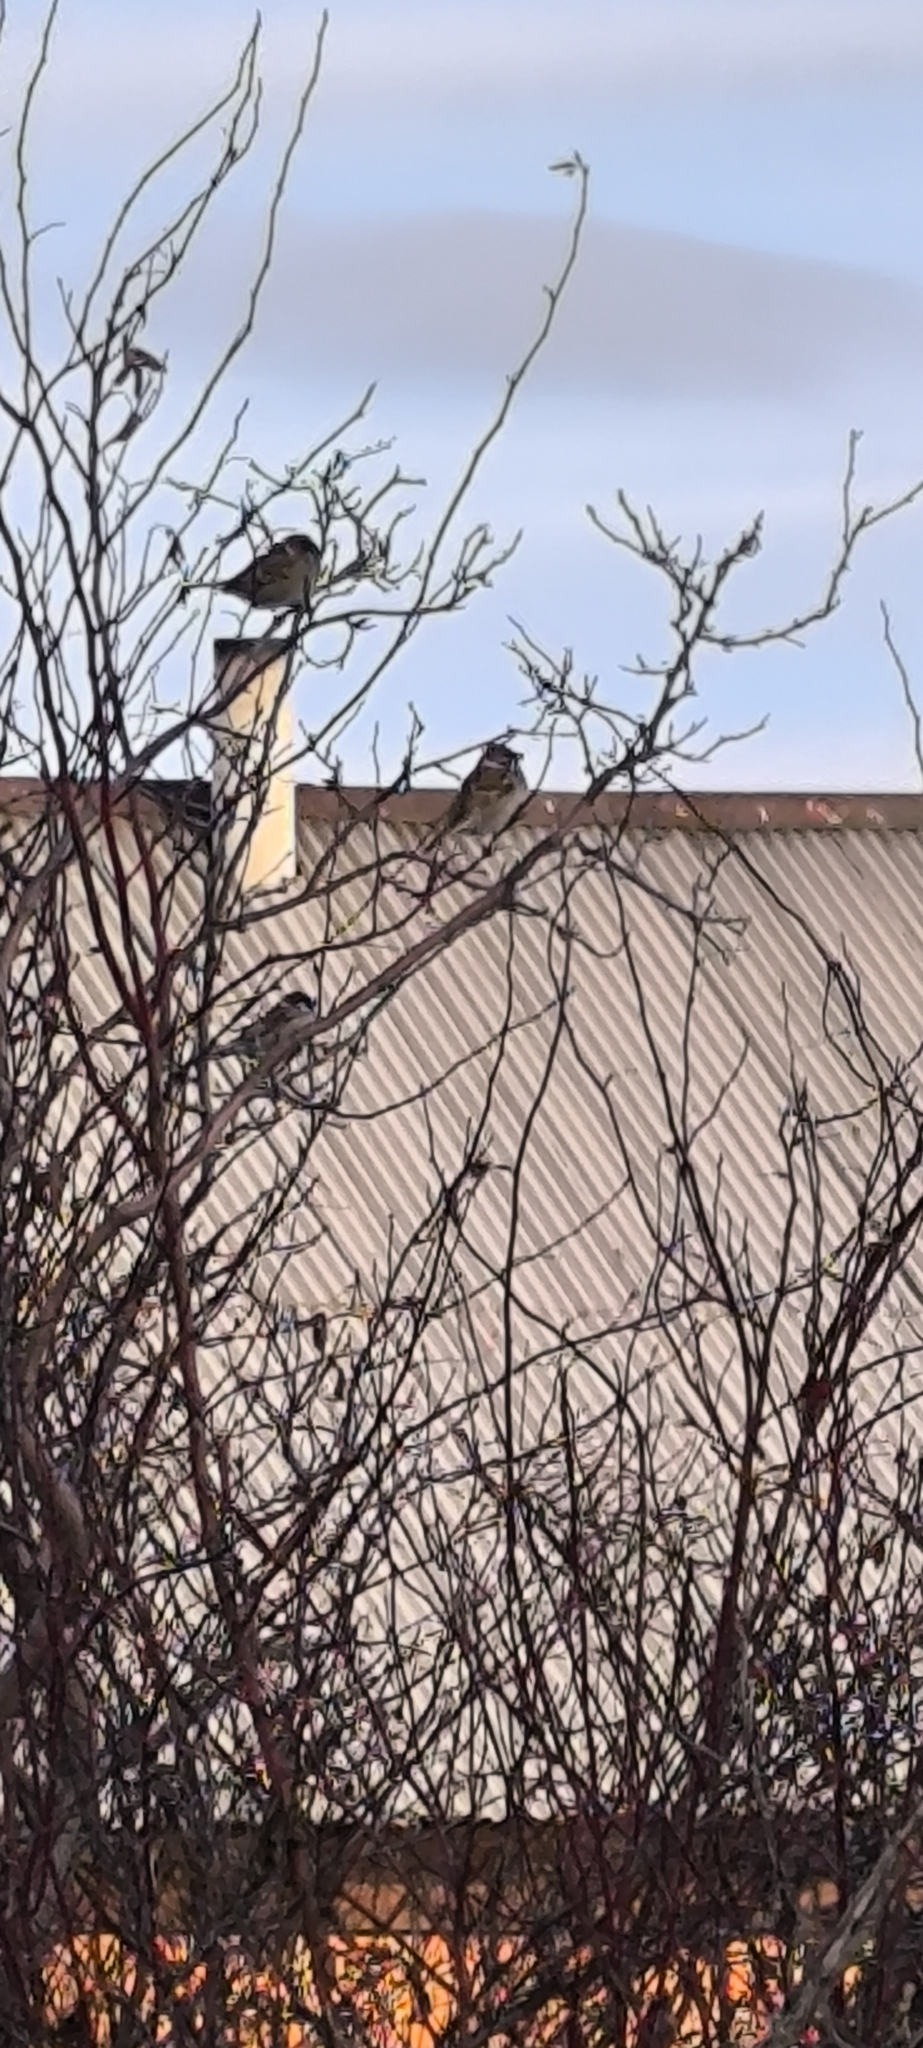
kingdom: Animalia
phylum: Chordata
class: Aves
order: Passeriformes
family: Passeridae
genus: Passer
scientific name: Passer montanus
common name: Eurasian tree sparrow
